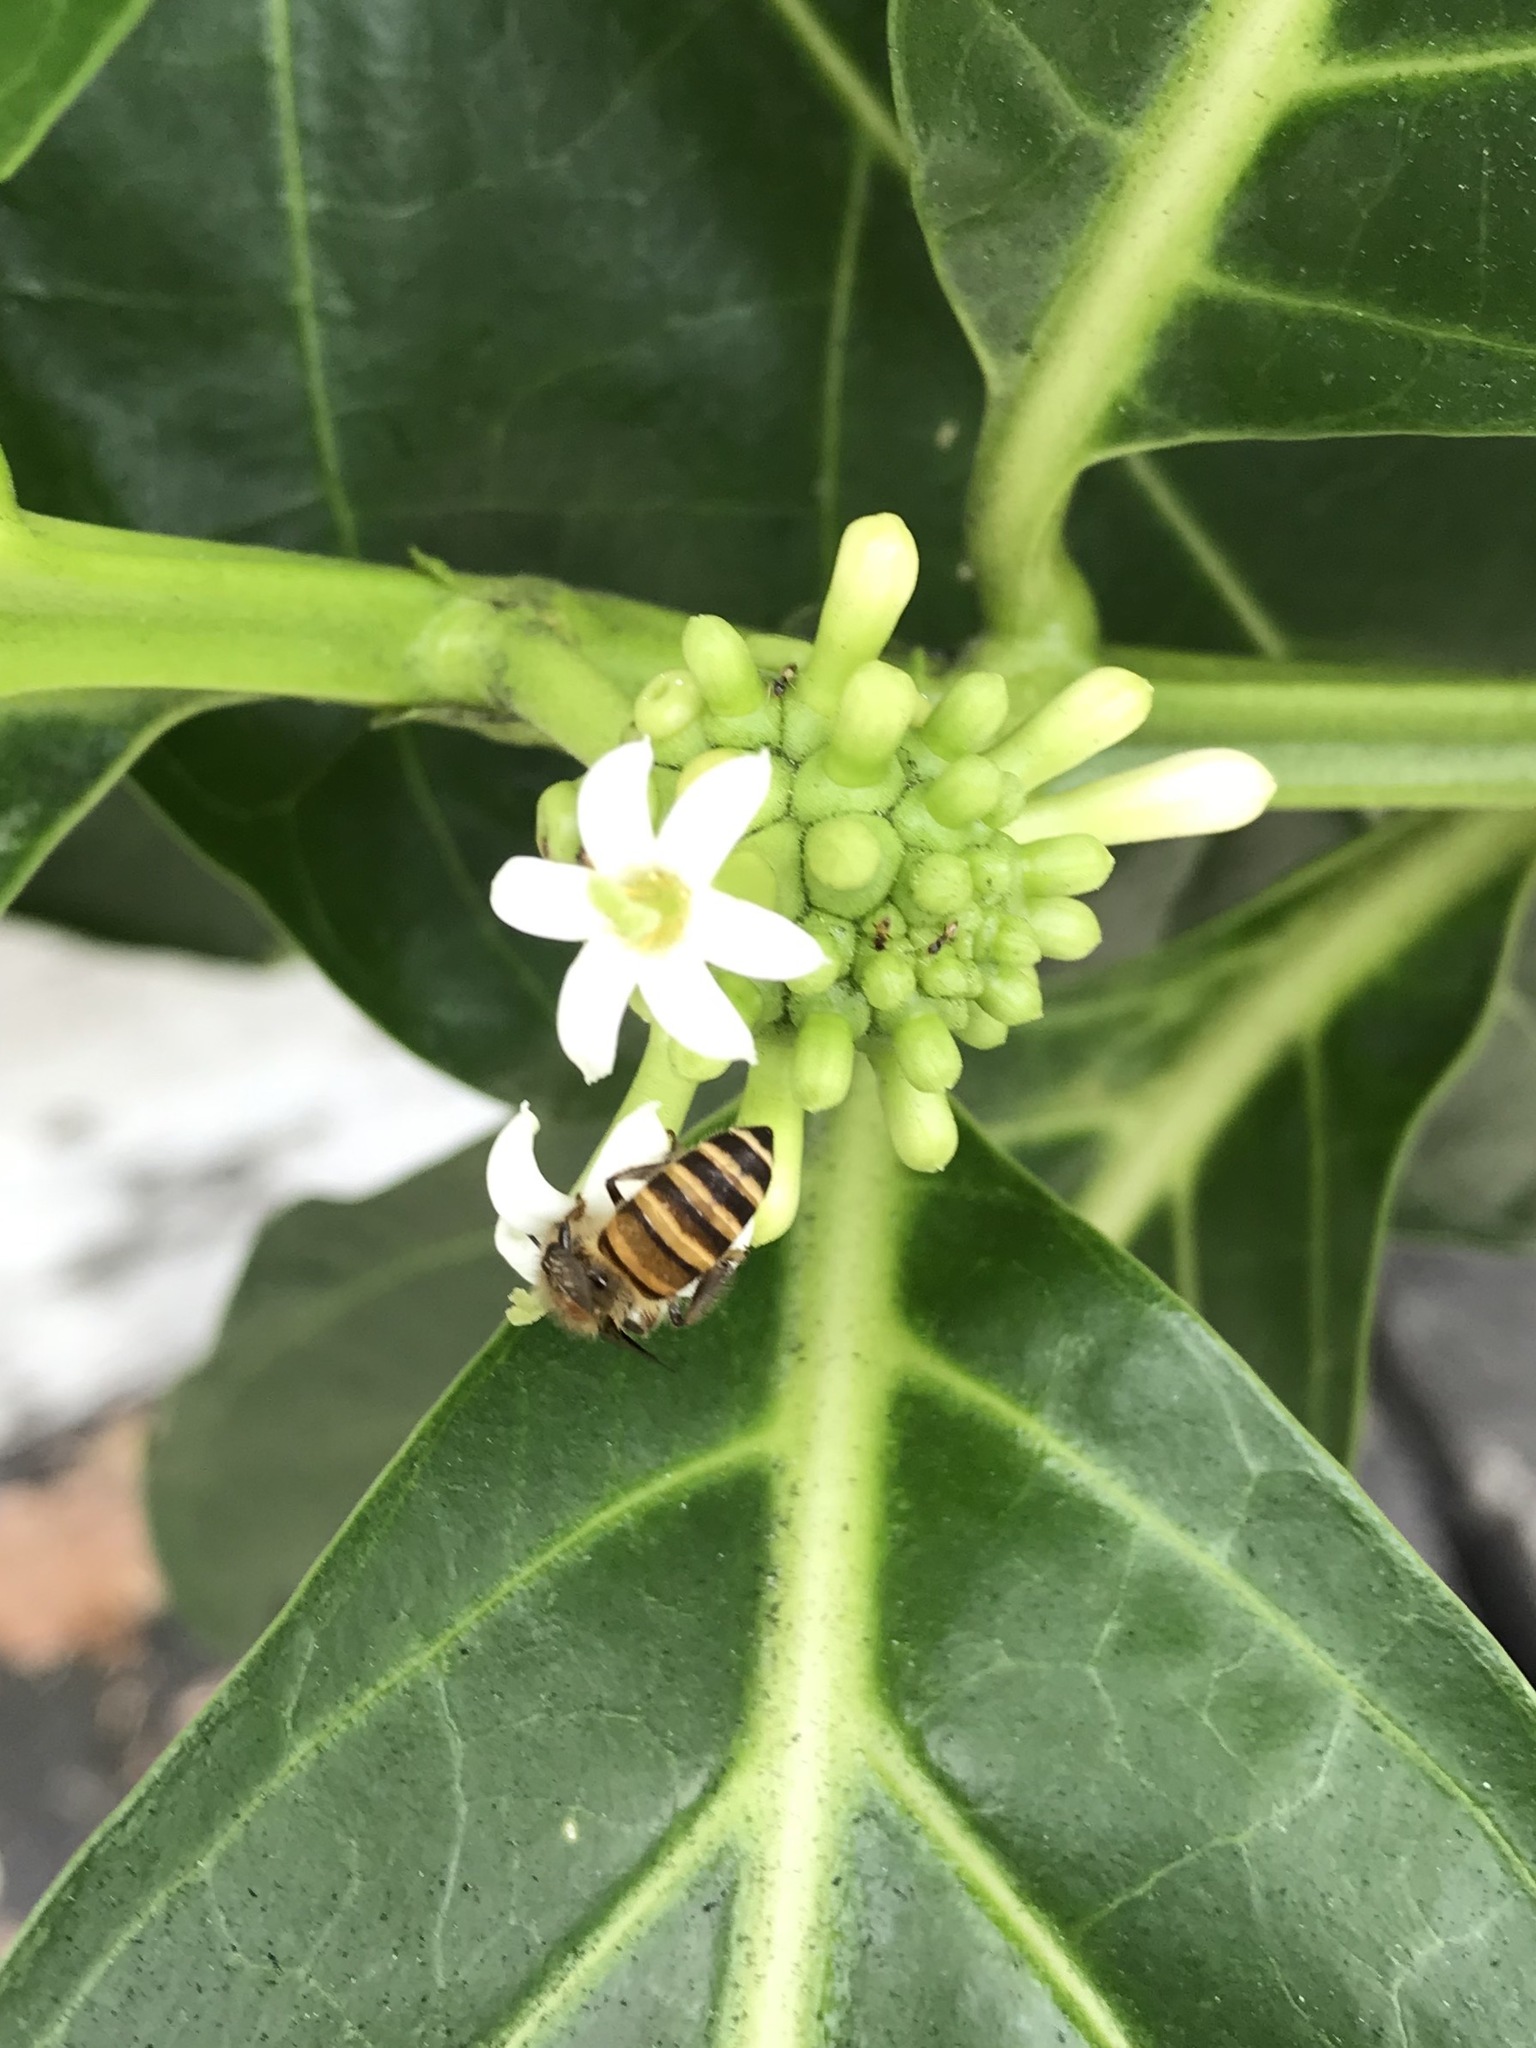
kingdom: Animalia
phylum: Arthropoda
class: Insecta
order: Hymenoptera
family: Apidae
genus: Apis
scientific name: Apis cerana
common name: Honey bee
